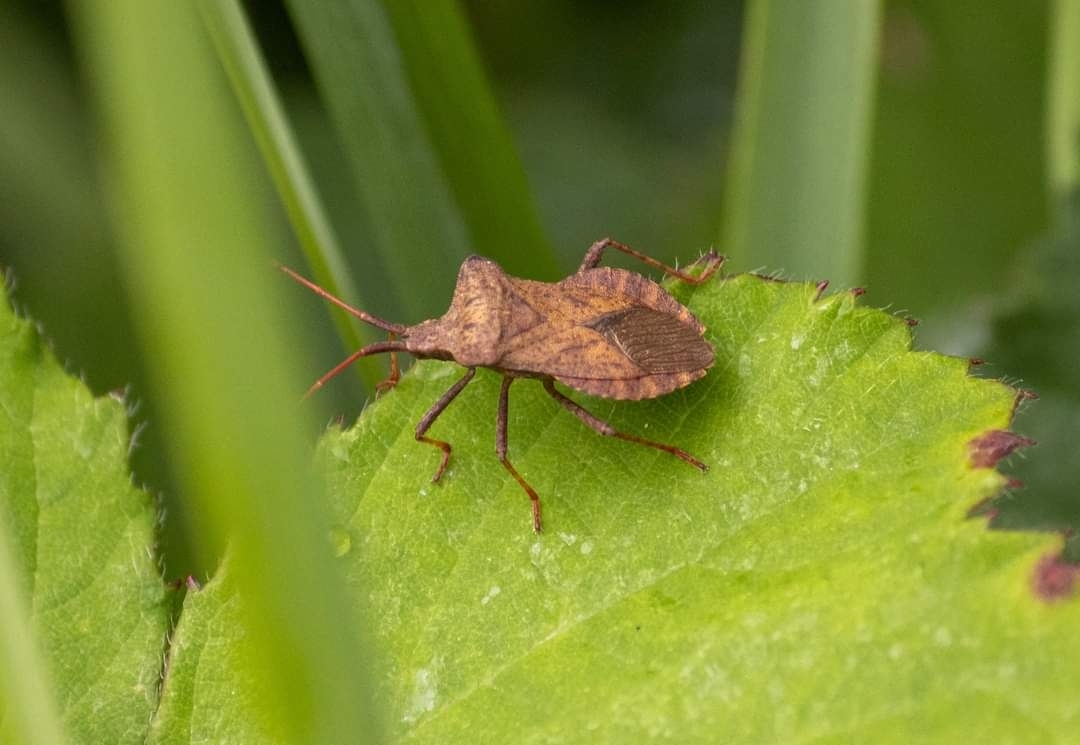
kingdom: Animalia
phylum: Arthropoda
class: Insecta
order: Hemiptera
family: Coreidae
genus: Coreus
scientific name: Coreus marginatus
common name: Dock bug
